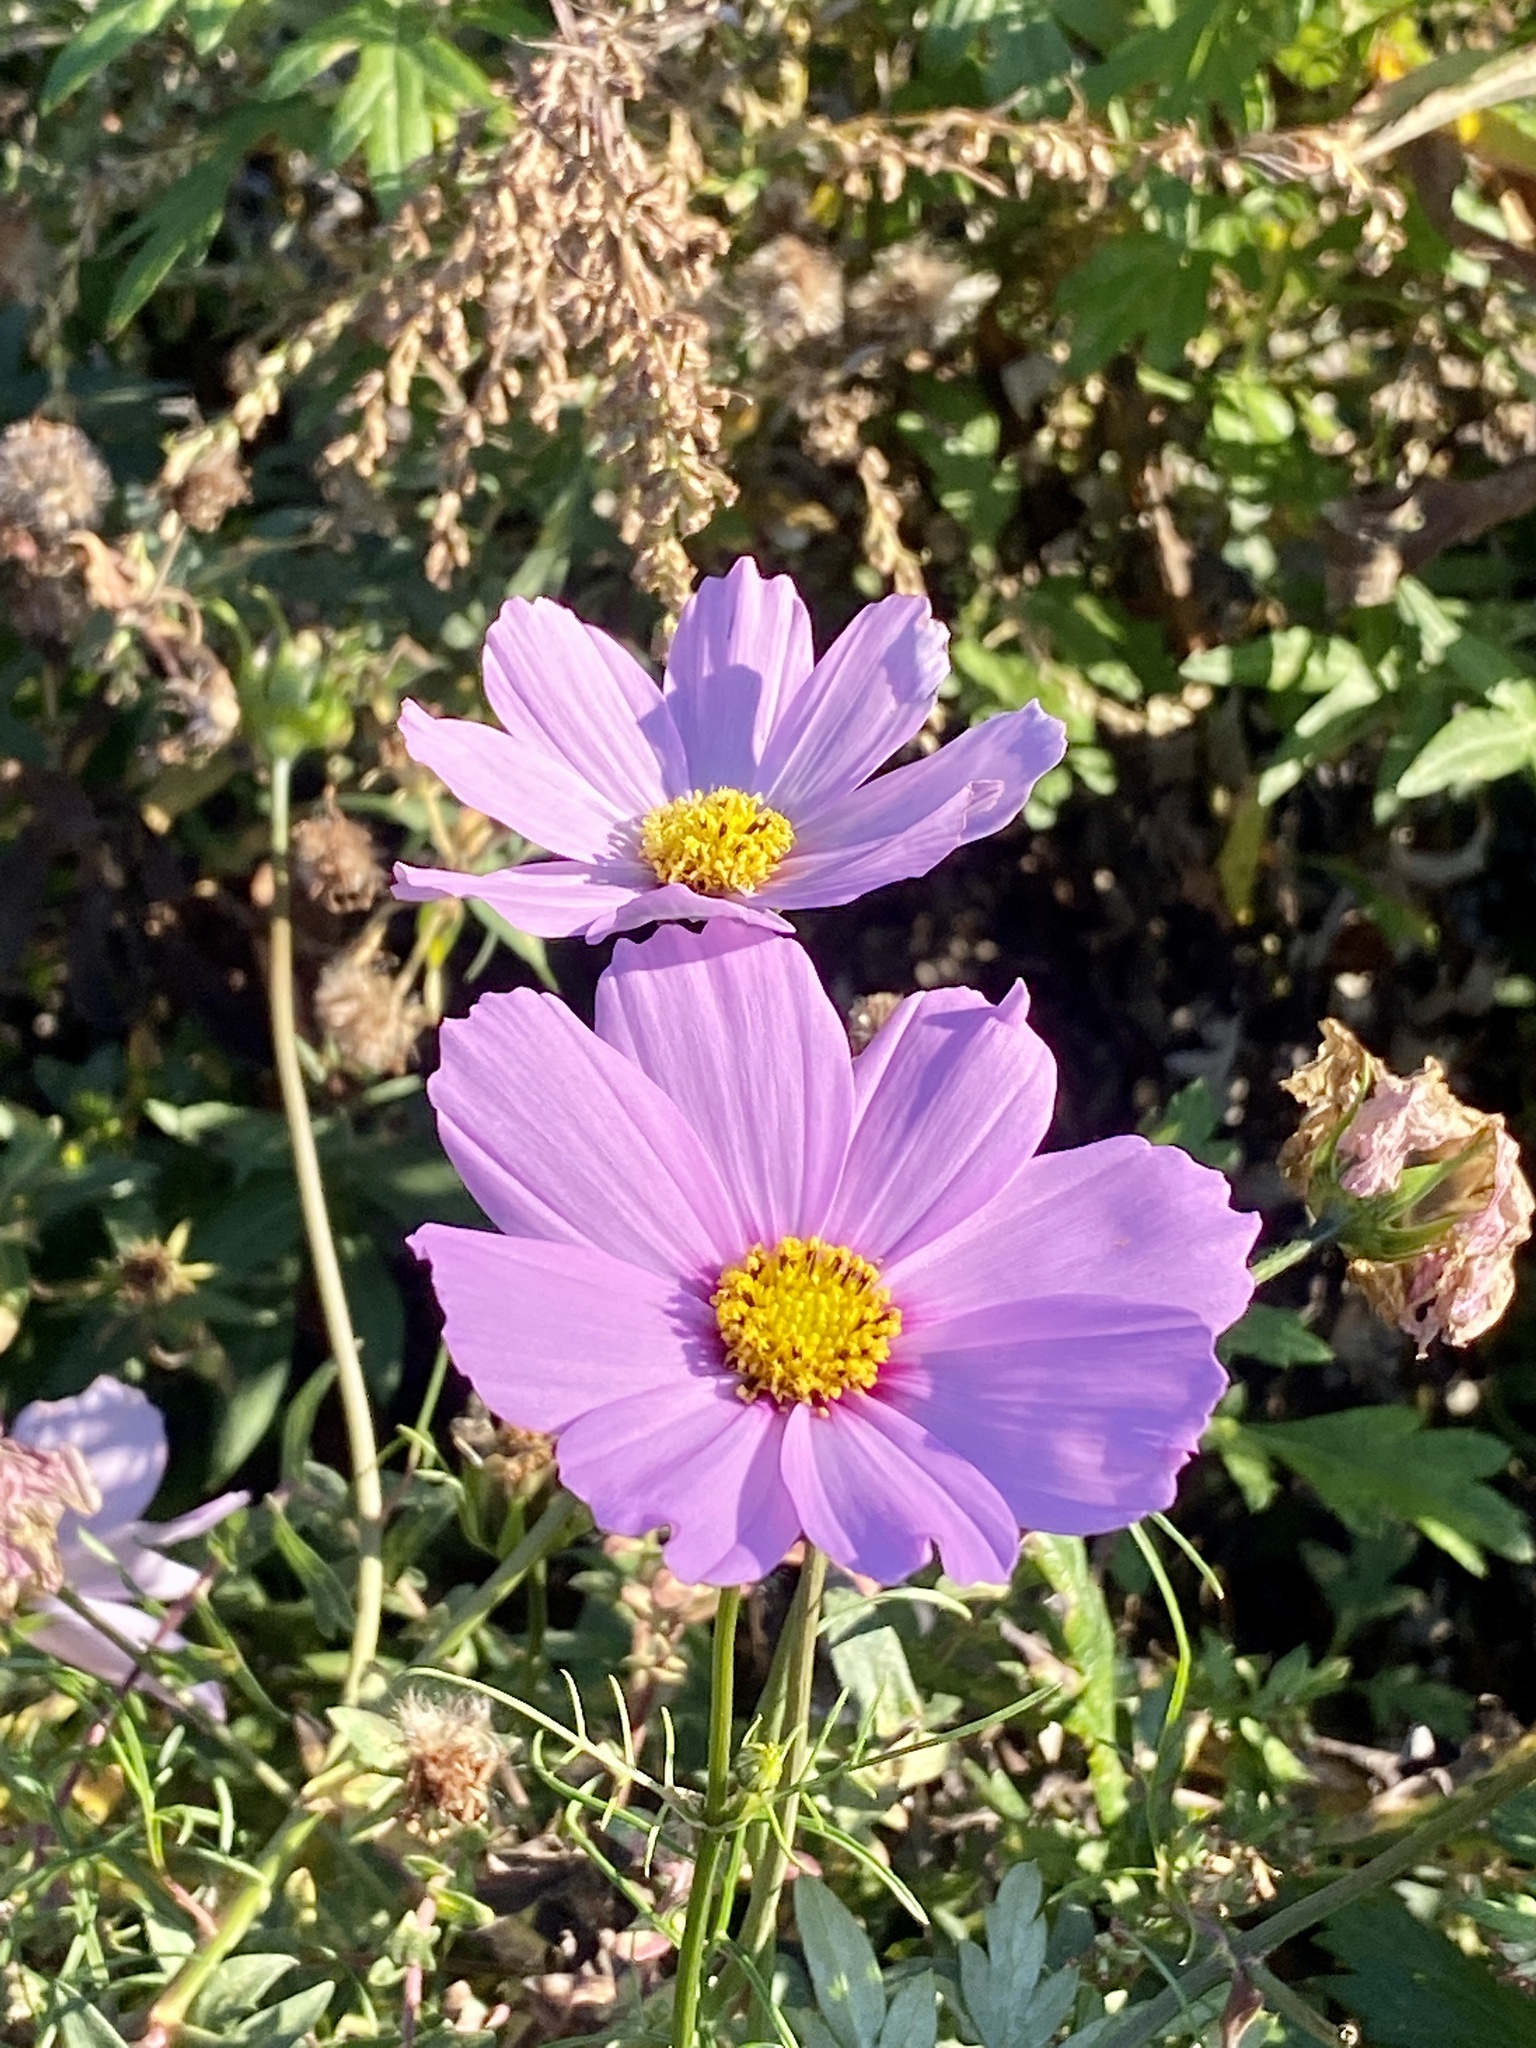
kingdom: Plantae
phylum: Tracheophyta
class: Magnoliopsida
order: Asterales
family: Asteraceae
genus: Cosmos
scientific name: Cosmos bipinnatus
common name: Garden cosmos
